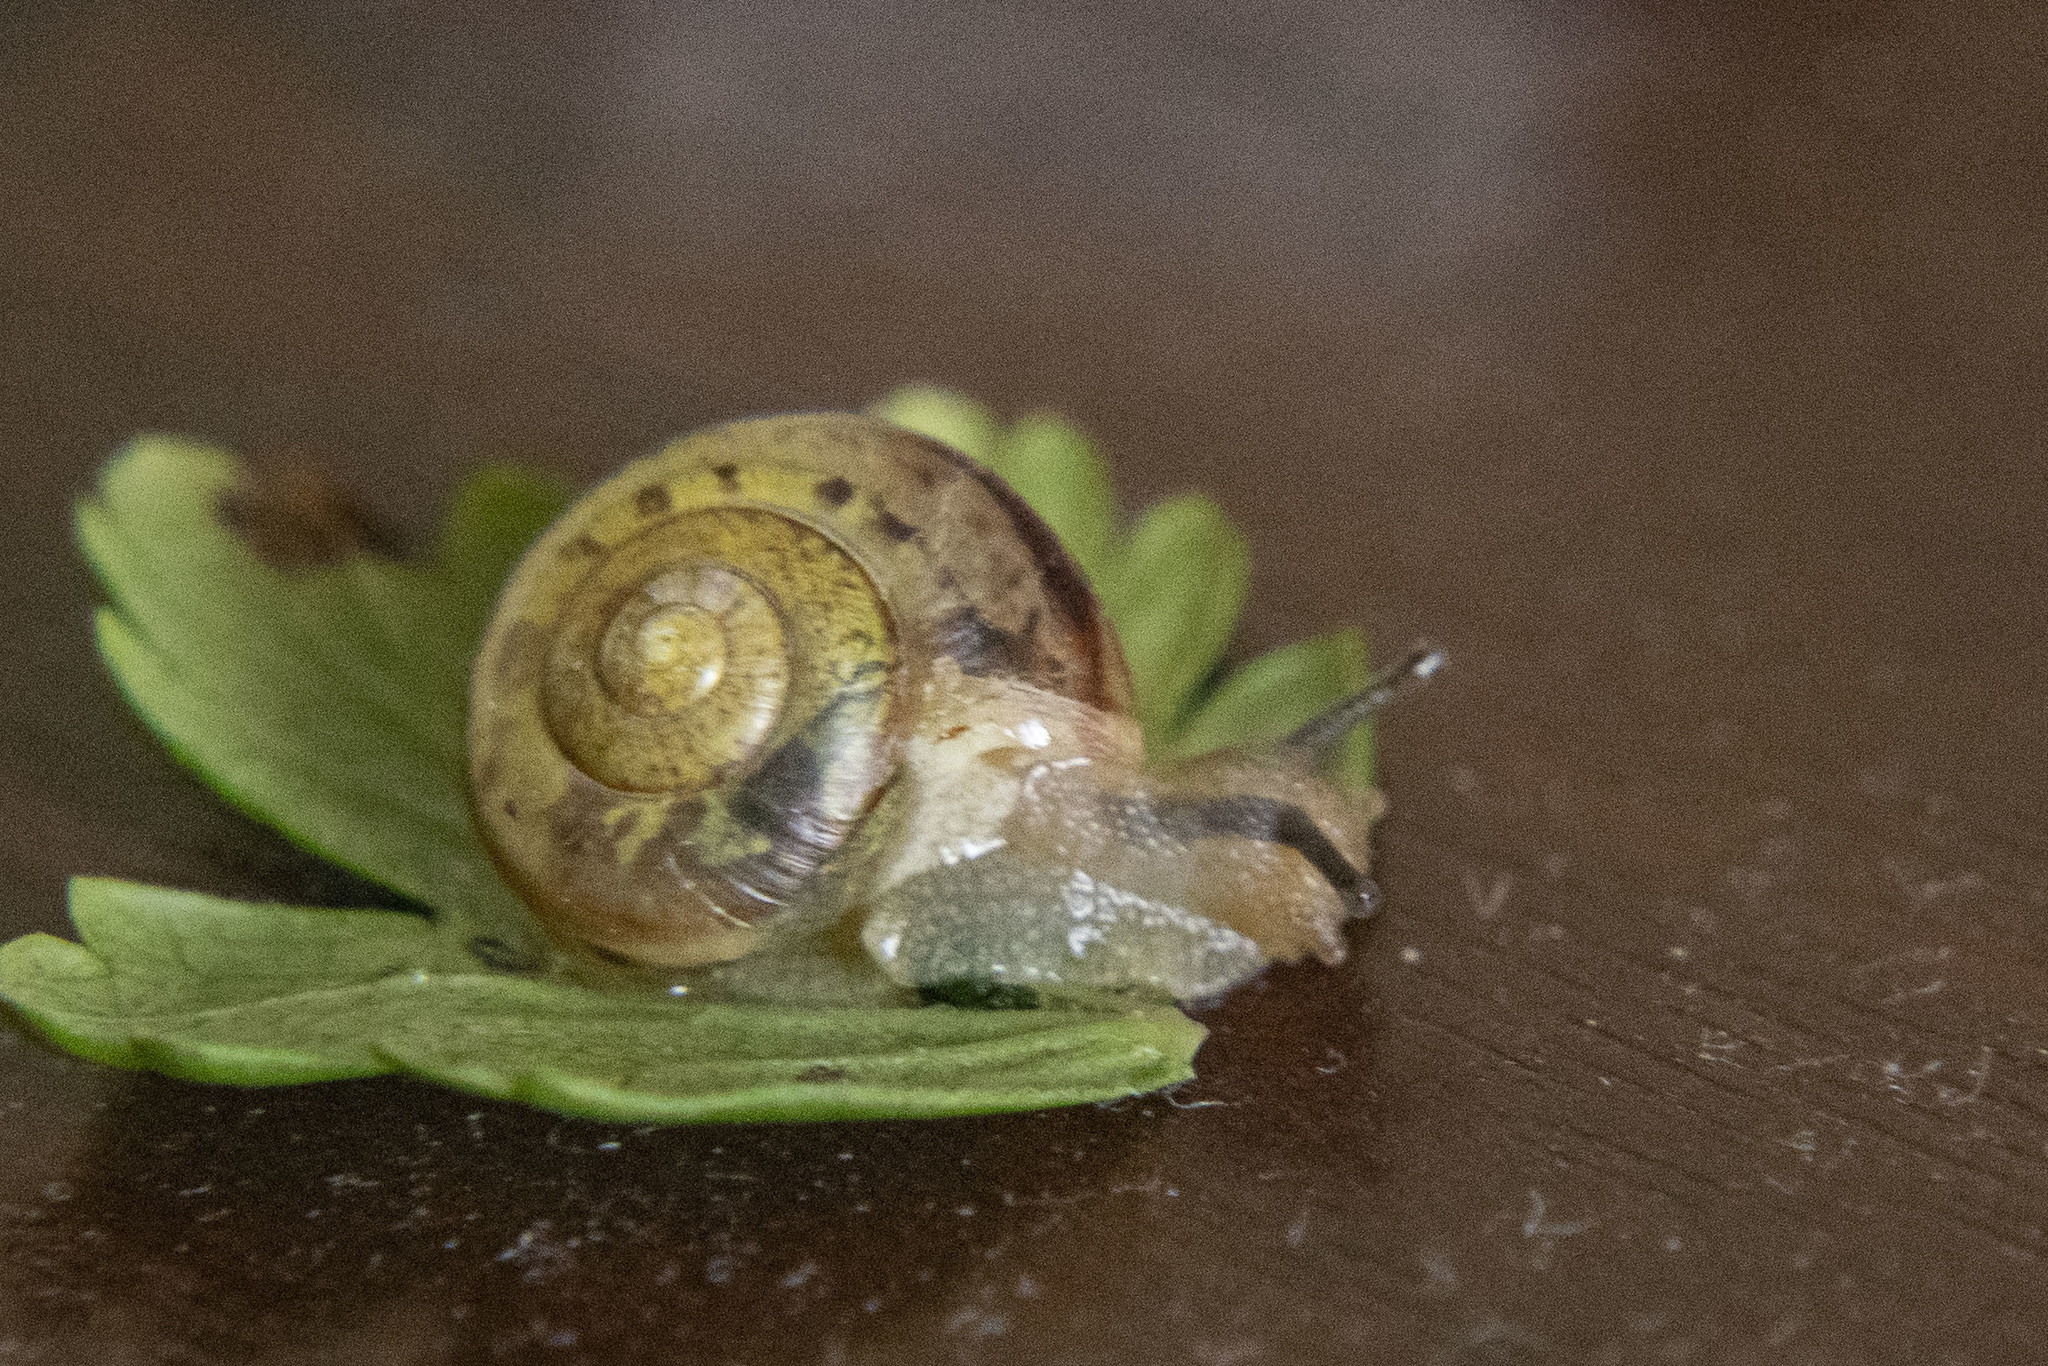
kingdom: Animalia
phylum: Mollusca
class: Gastropoda
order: Stylommatophora
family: Camaenidae
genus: Fruticicola
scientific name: Fruticicola fruticum
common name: Bush snail
